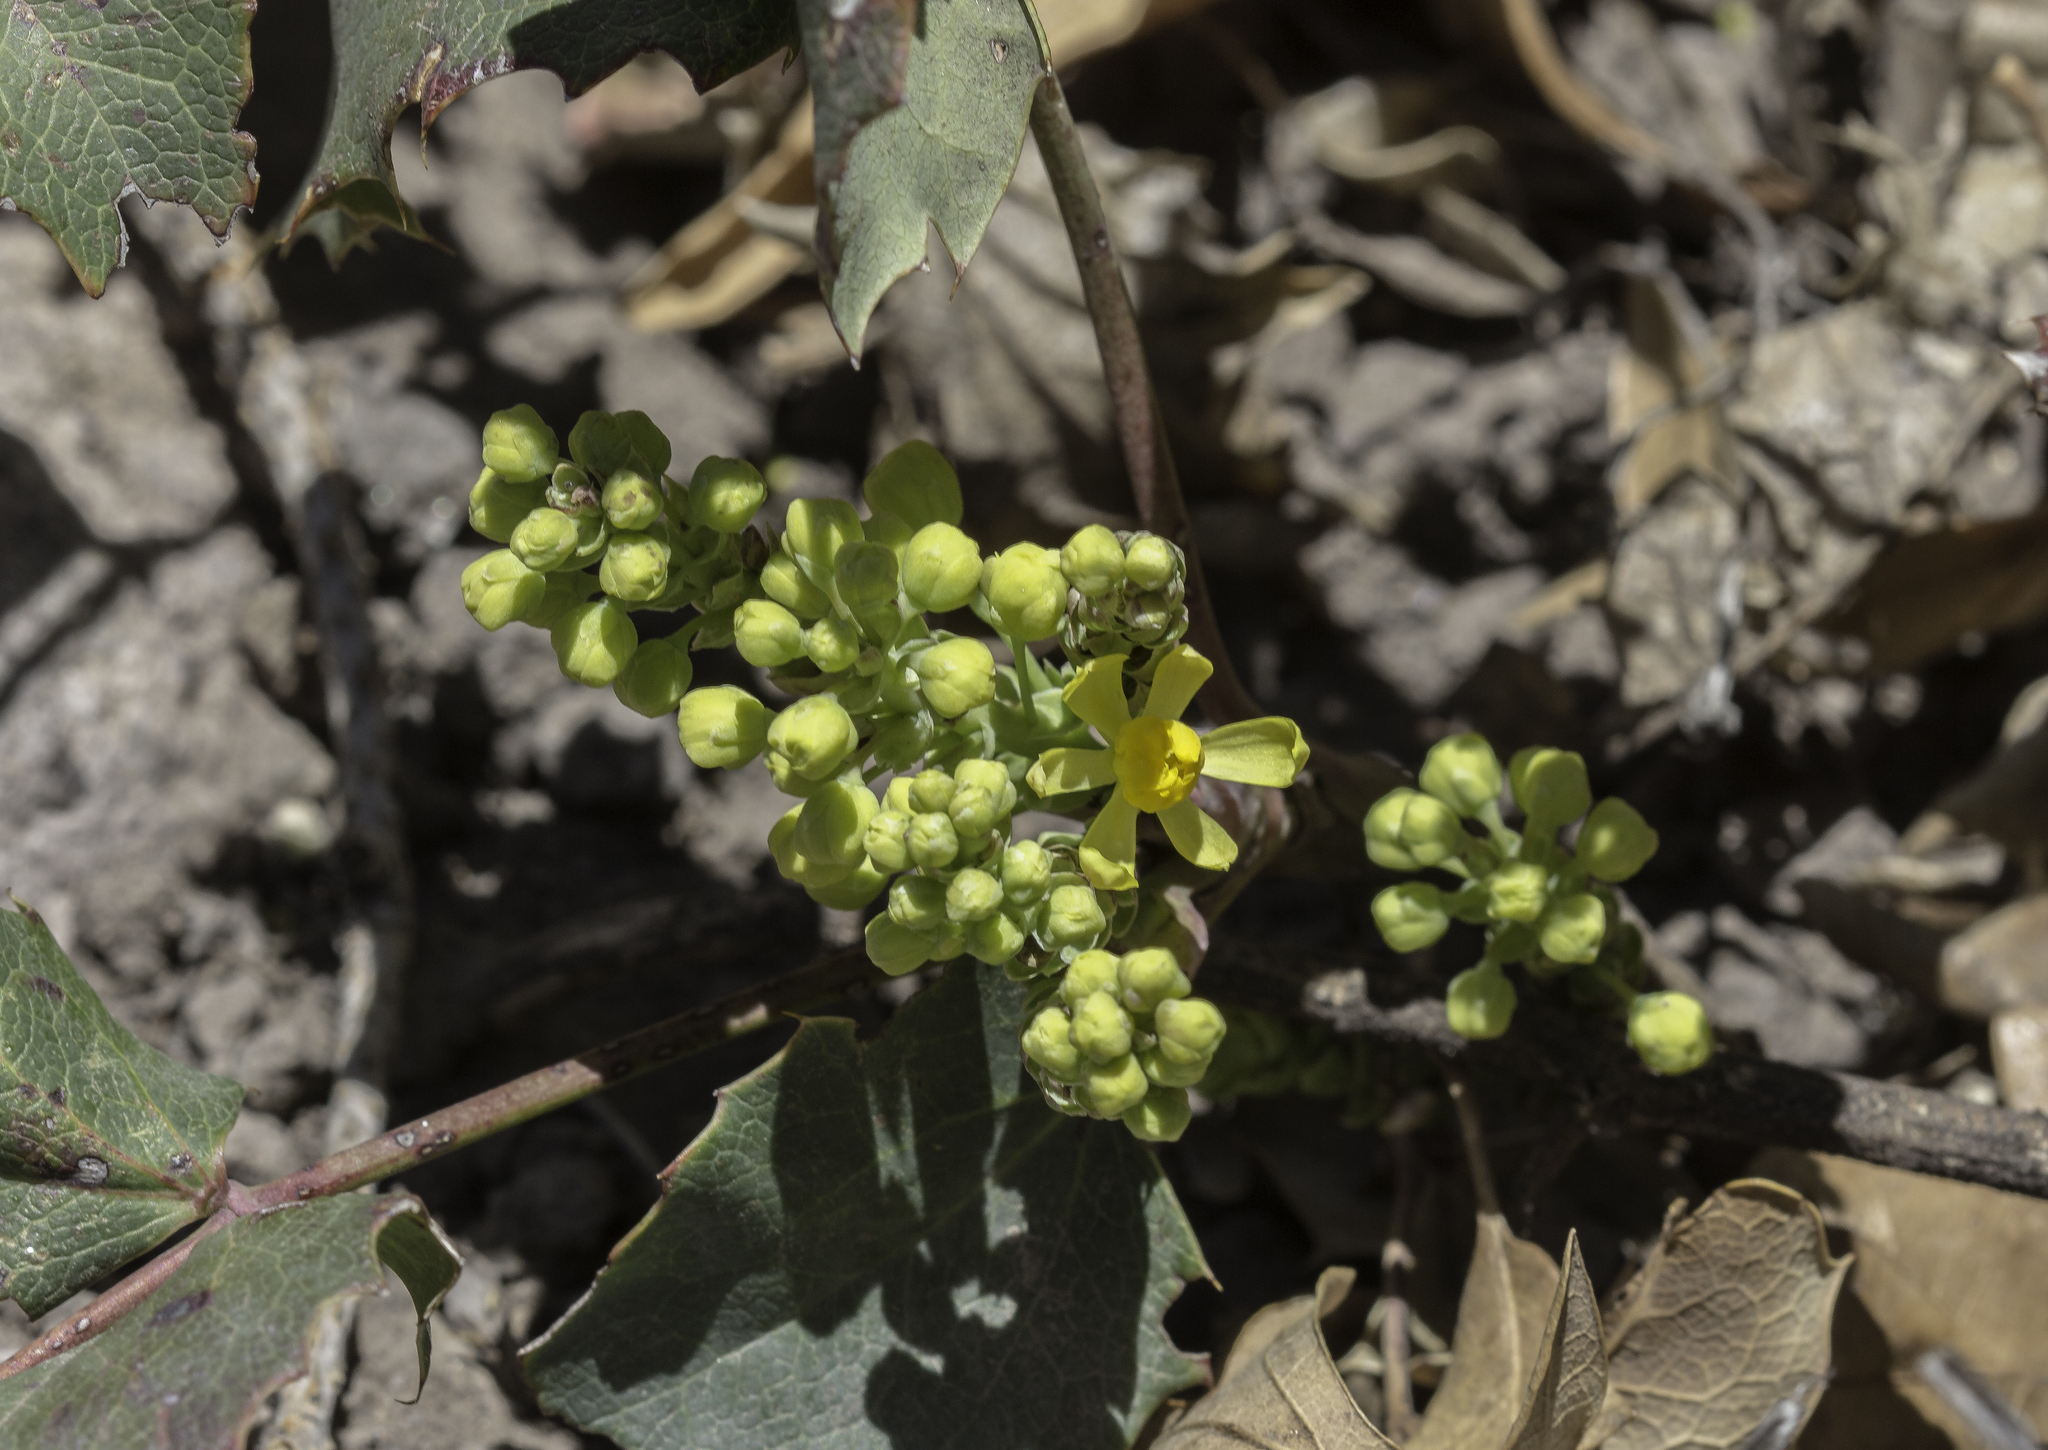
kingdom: Plantae
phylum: Tracheophyta
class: Magnoliopsida
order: Ranunculales
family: Berberidaceae
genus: Mahonia
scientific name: Mahonia repens
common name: Creeping oregon-grape
